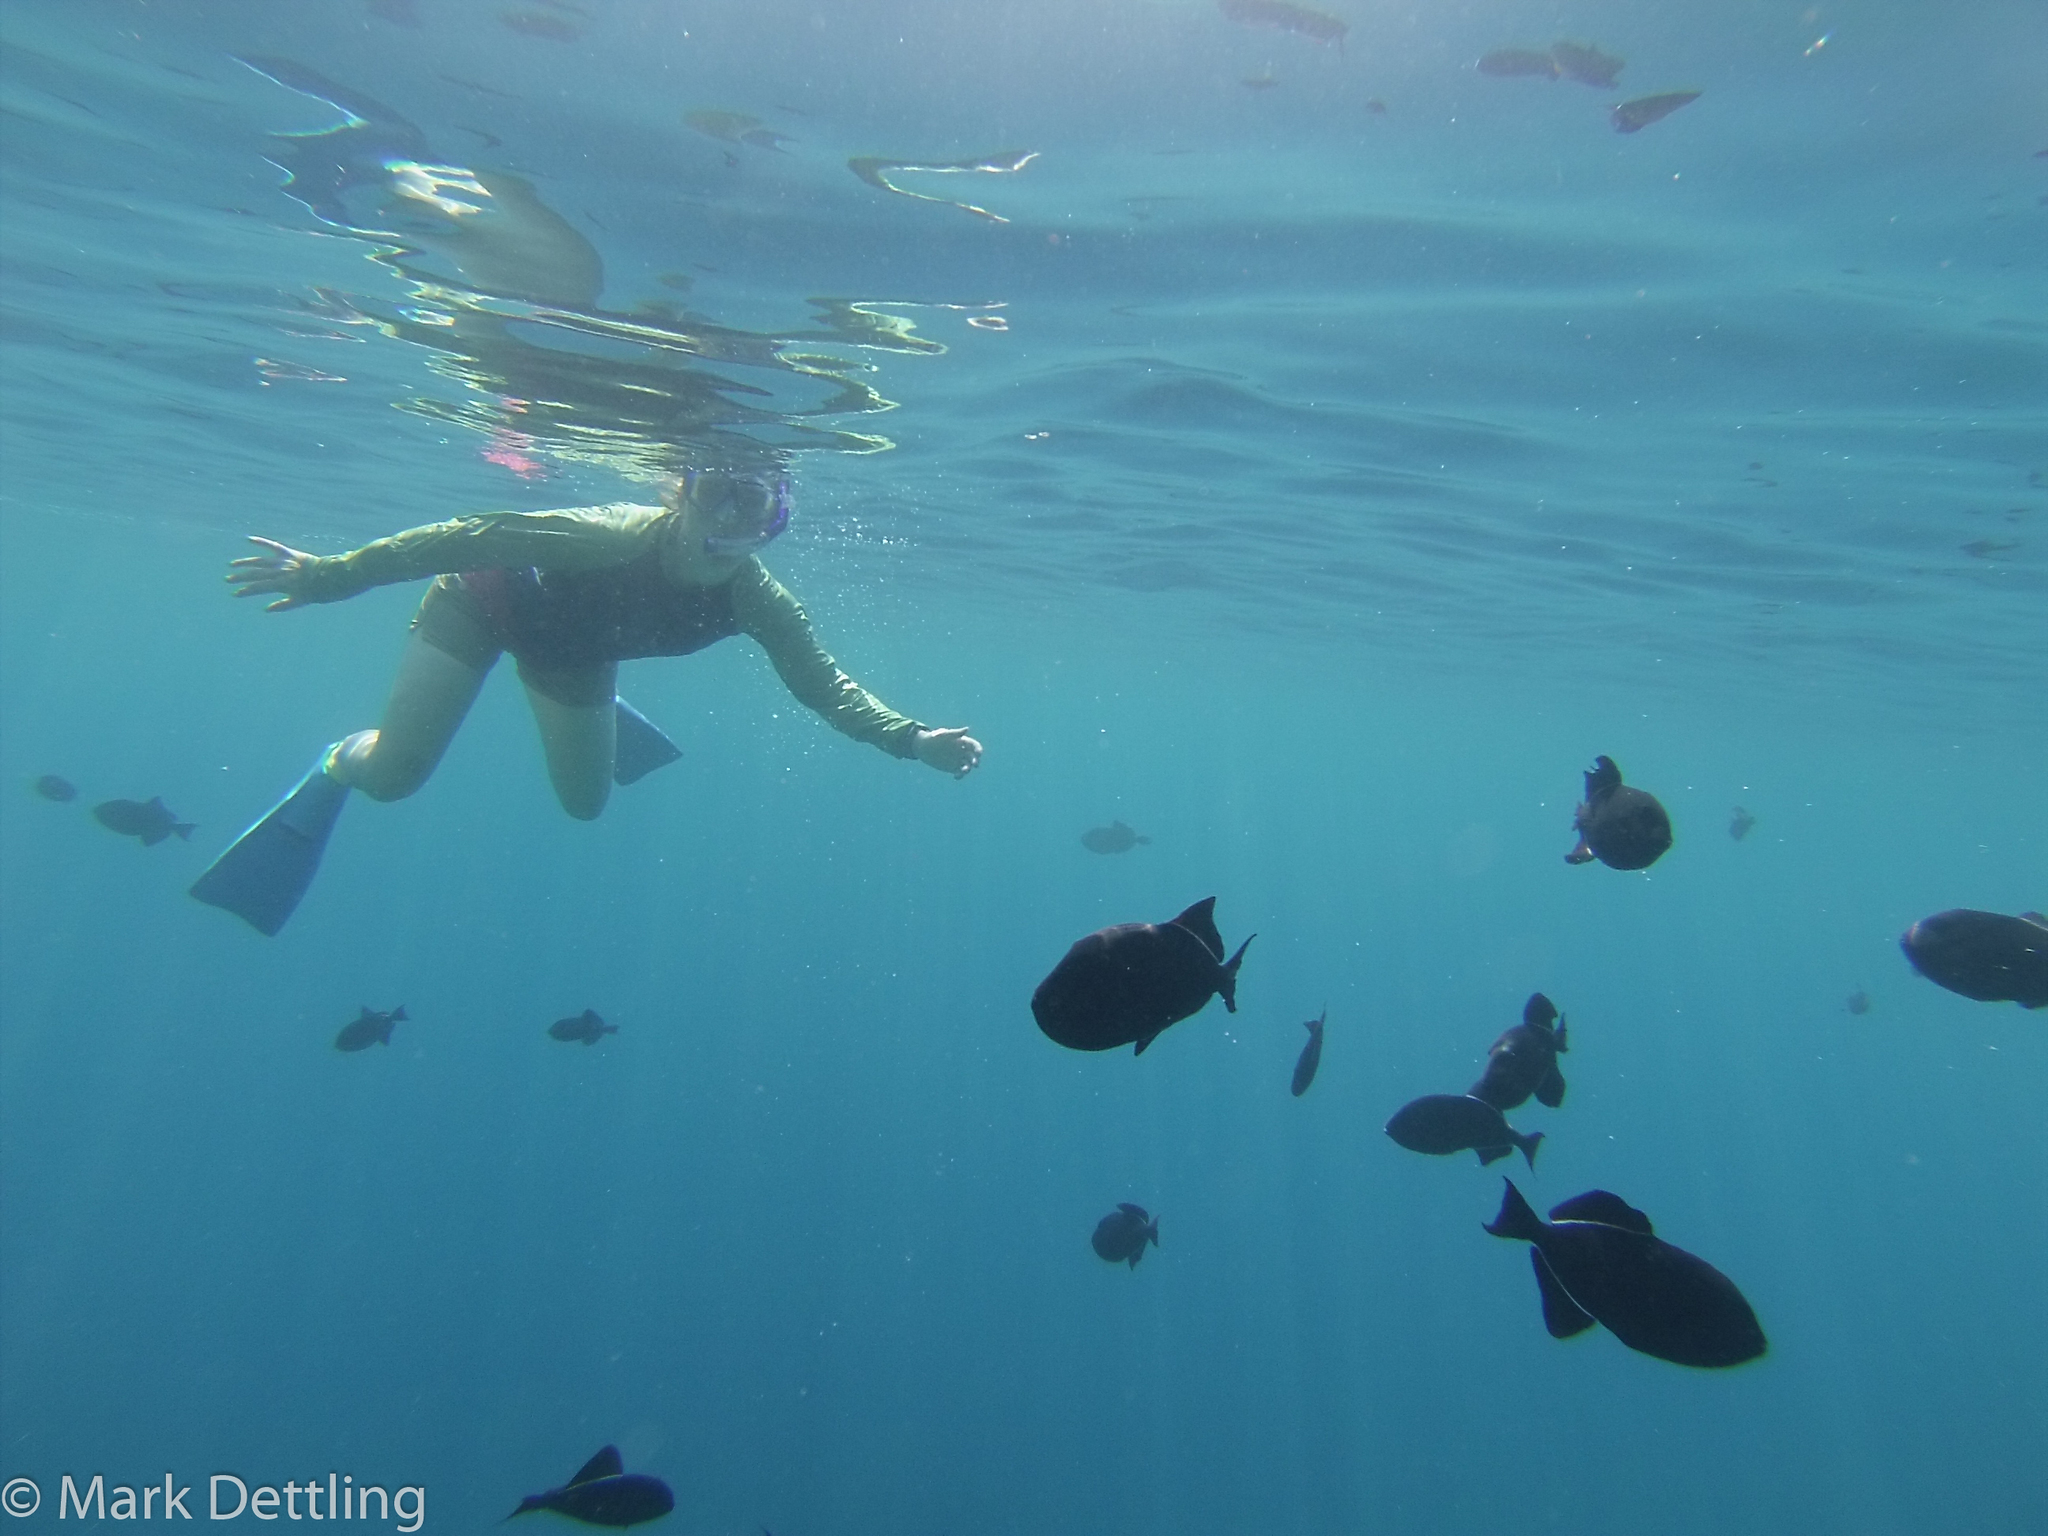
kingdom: Animalia
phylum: Chordata
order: Tetraodontiformes
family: Balistidae
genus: Melichthys
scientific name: Melichthys niger
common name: Black durgon
